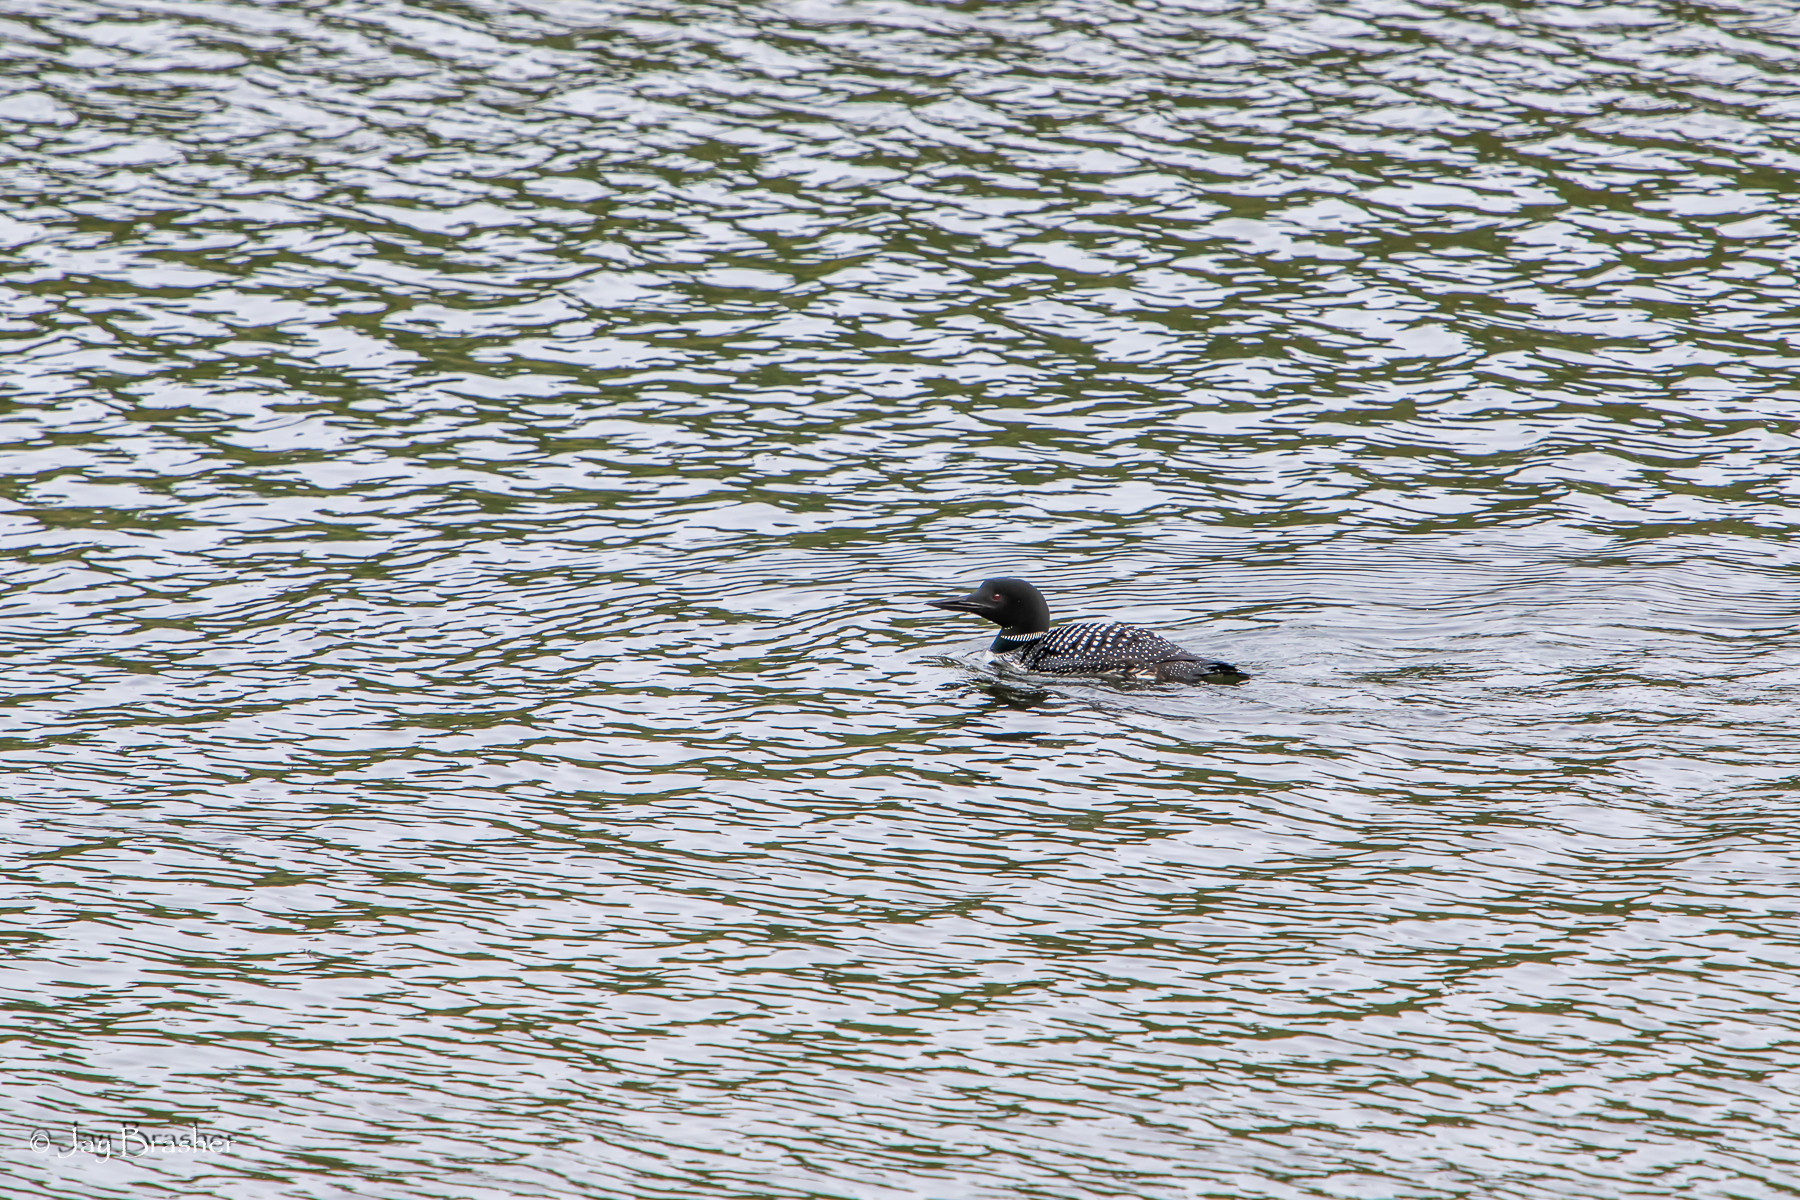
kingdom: Animalia
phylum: Chordata
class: Aves
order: Gaviiformes
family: Gaviidae
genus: Gavia
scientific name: Gavia immer
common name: Common loon
